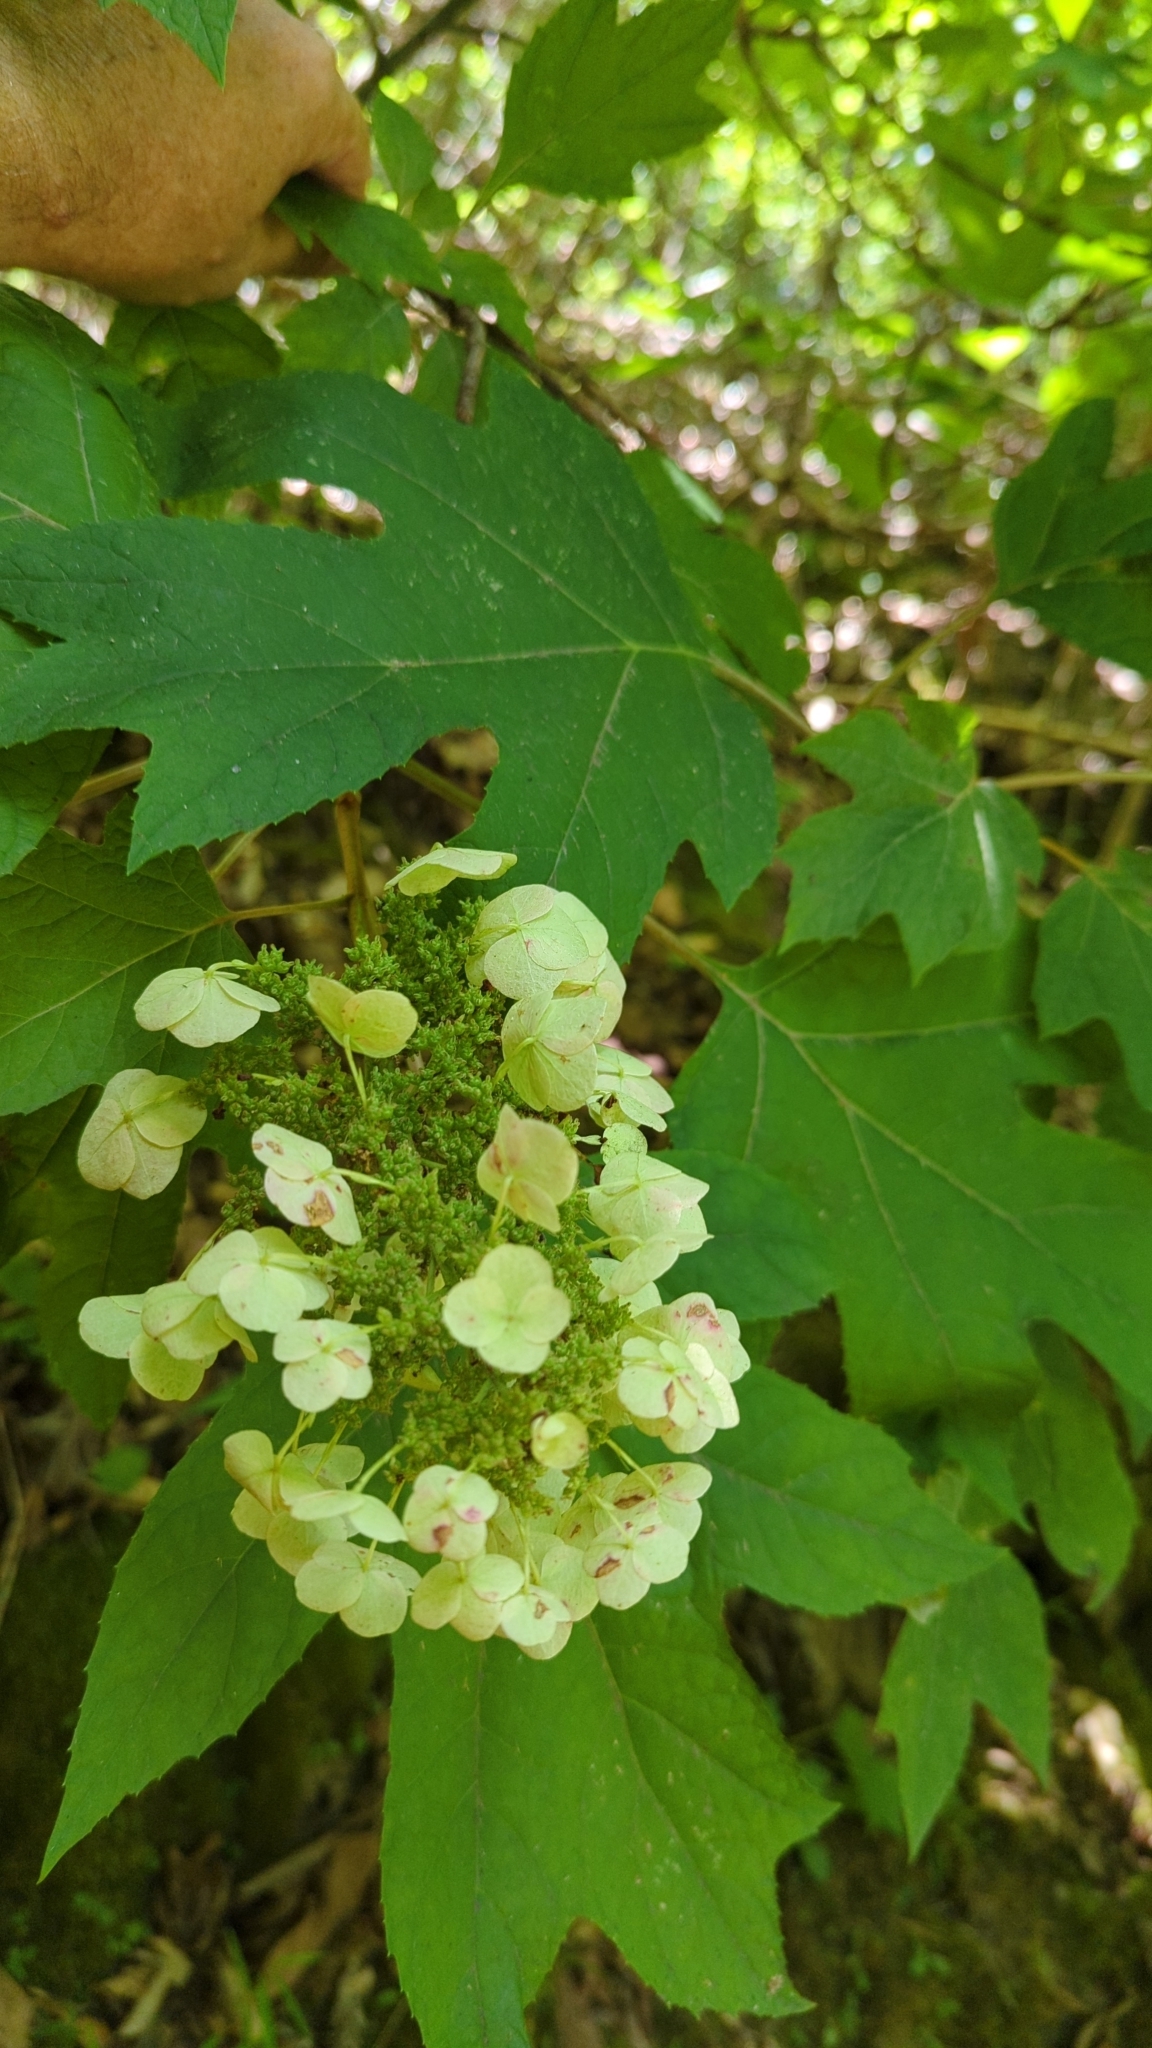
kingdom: Plantae
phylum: Tracheophyta
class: Magnoliopsida
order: Cornales
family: Hydrangeaceae
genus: Hydrangea
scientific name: Hydrangea quercifolia
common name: Oak-leaf hydrangea
